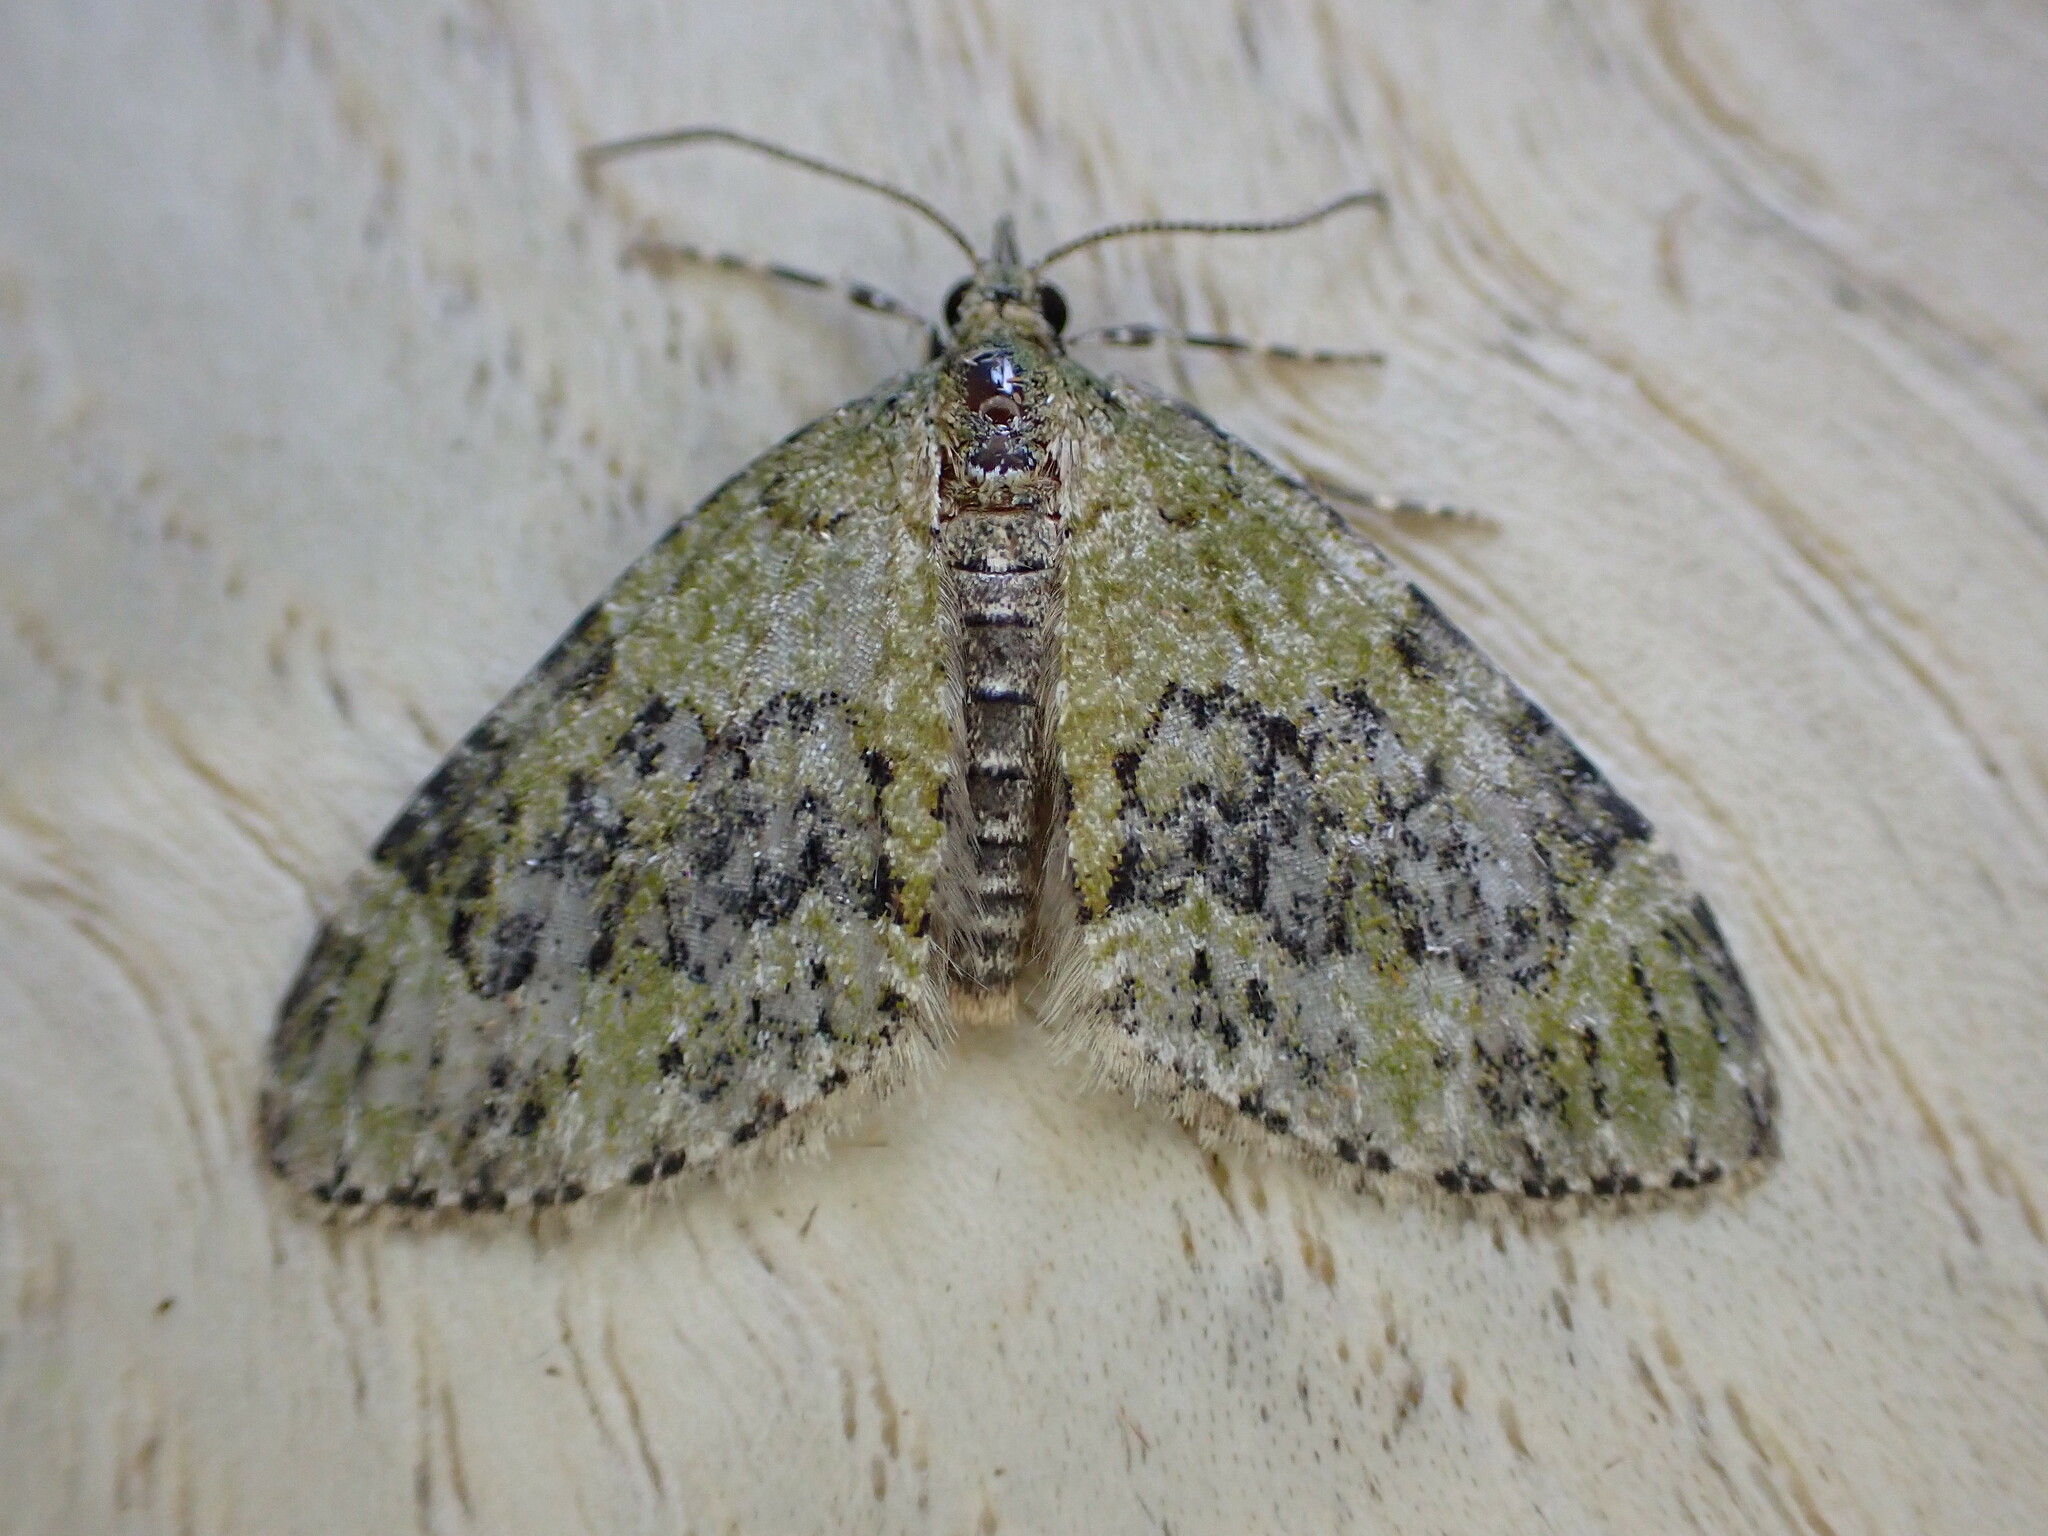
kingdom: Animalia
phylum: Arthropoda
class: Insecta
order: Lepidoptera
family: Geometridae
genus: Acasis
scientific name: Acasis viretata
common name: Yellow-barred brindle
